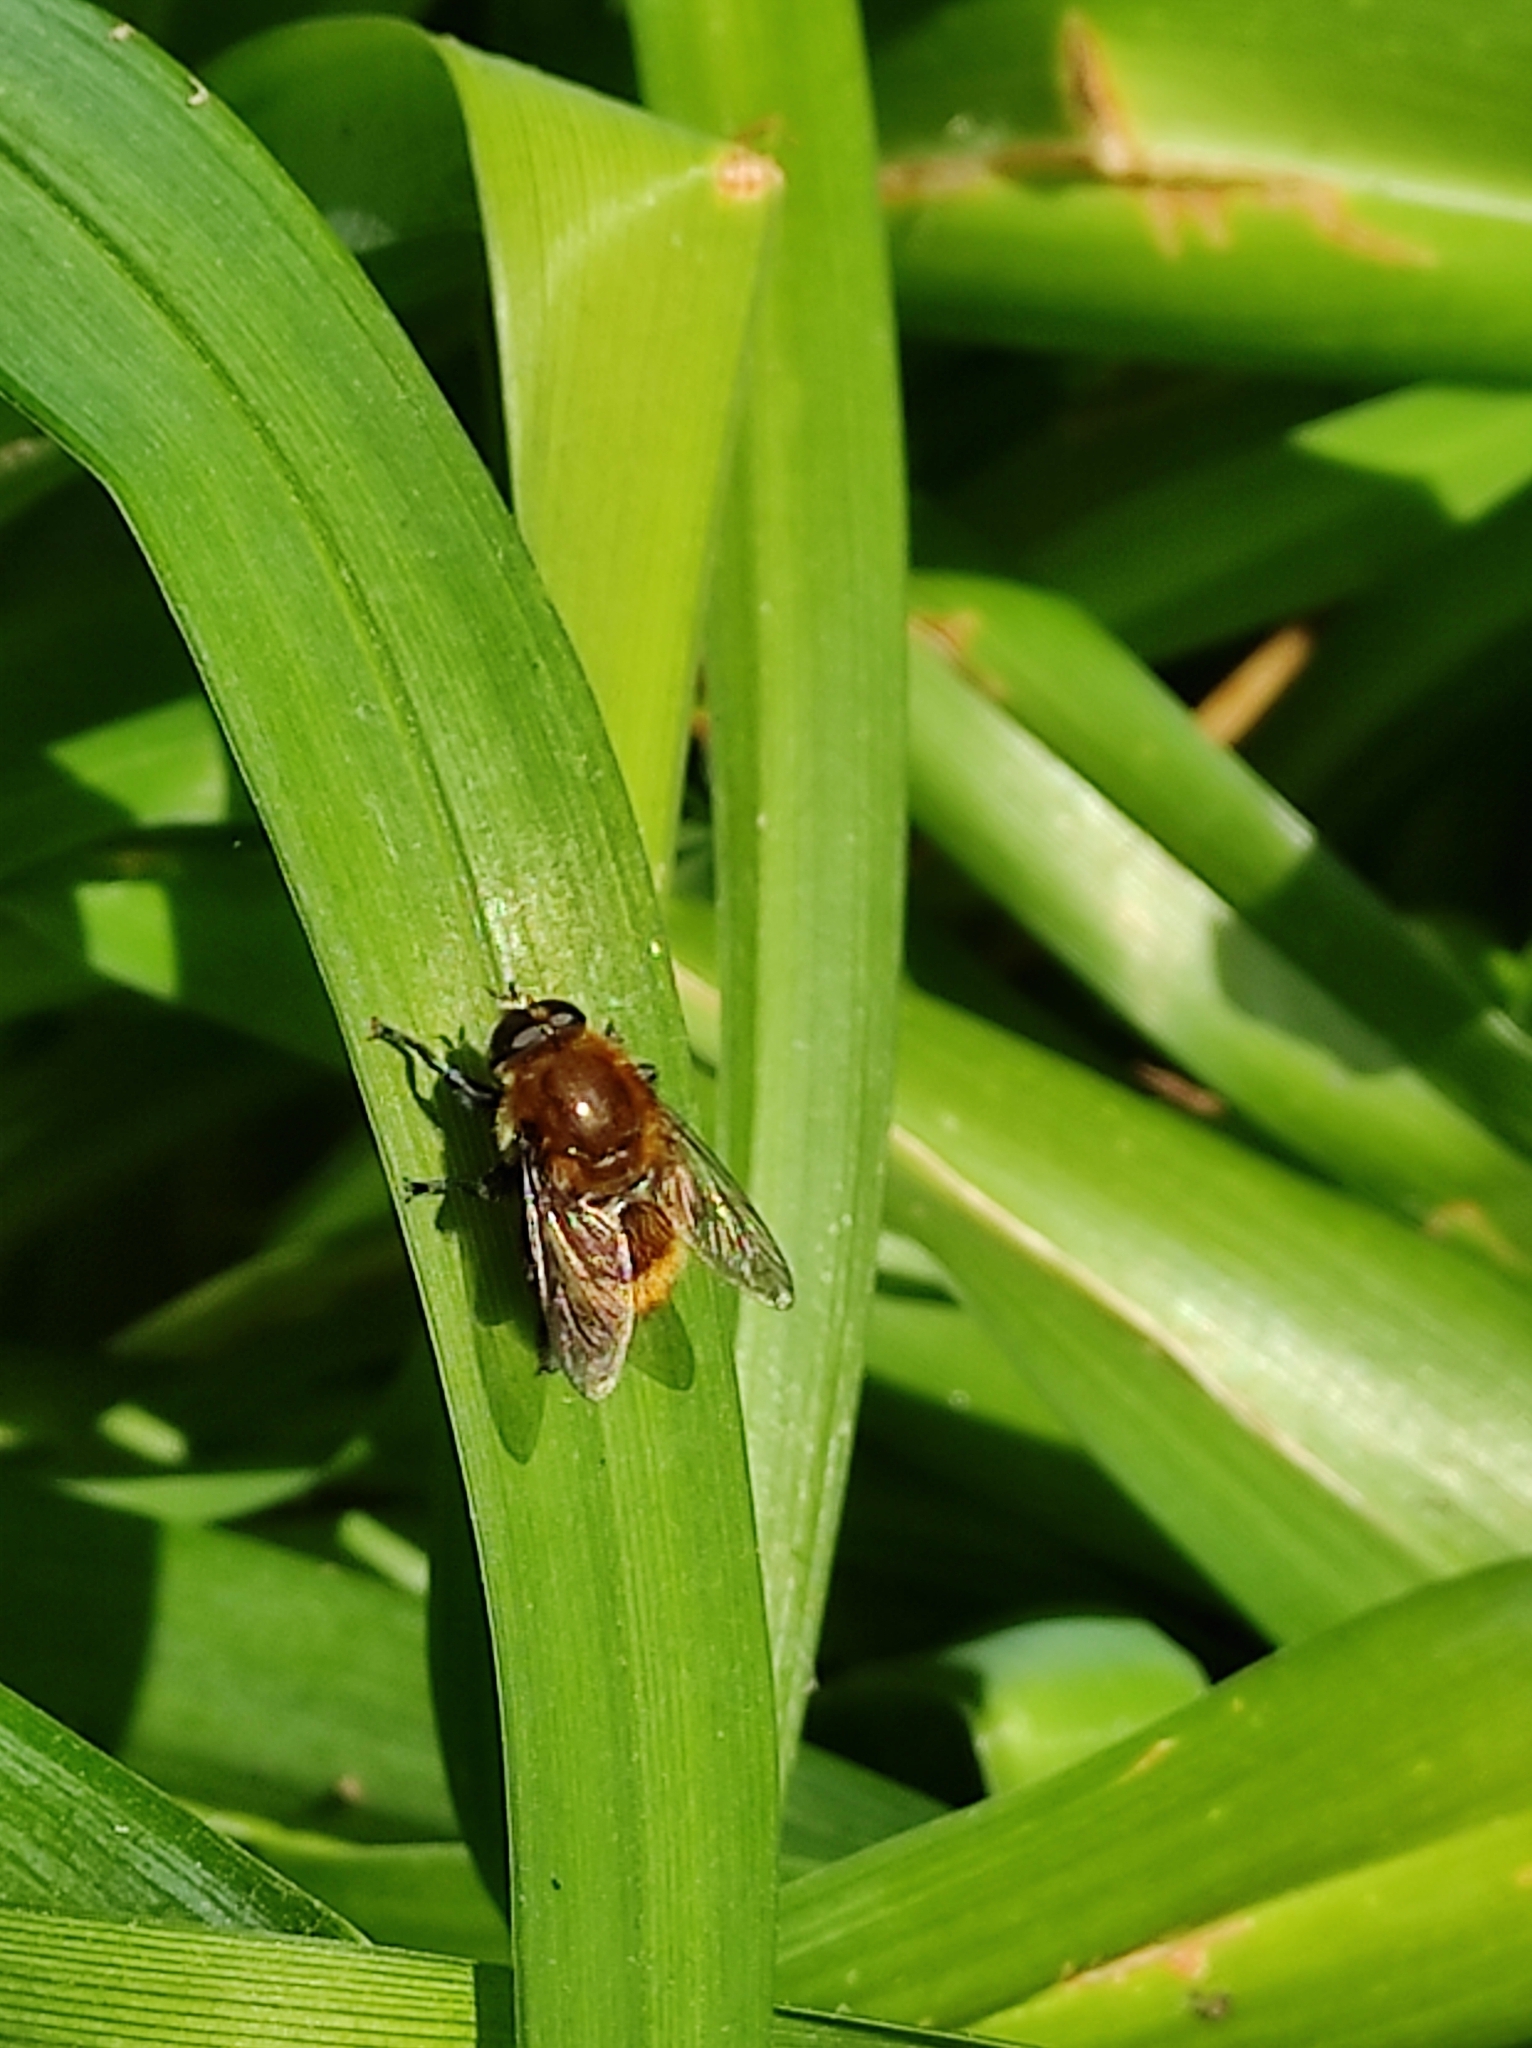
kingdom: Animalia
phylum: Arthropoda
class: Insecta
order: Diptera
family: Syrphidae
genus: Merodon
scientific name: Merodon equestris
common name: Greater bulb-fly
